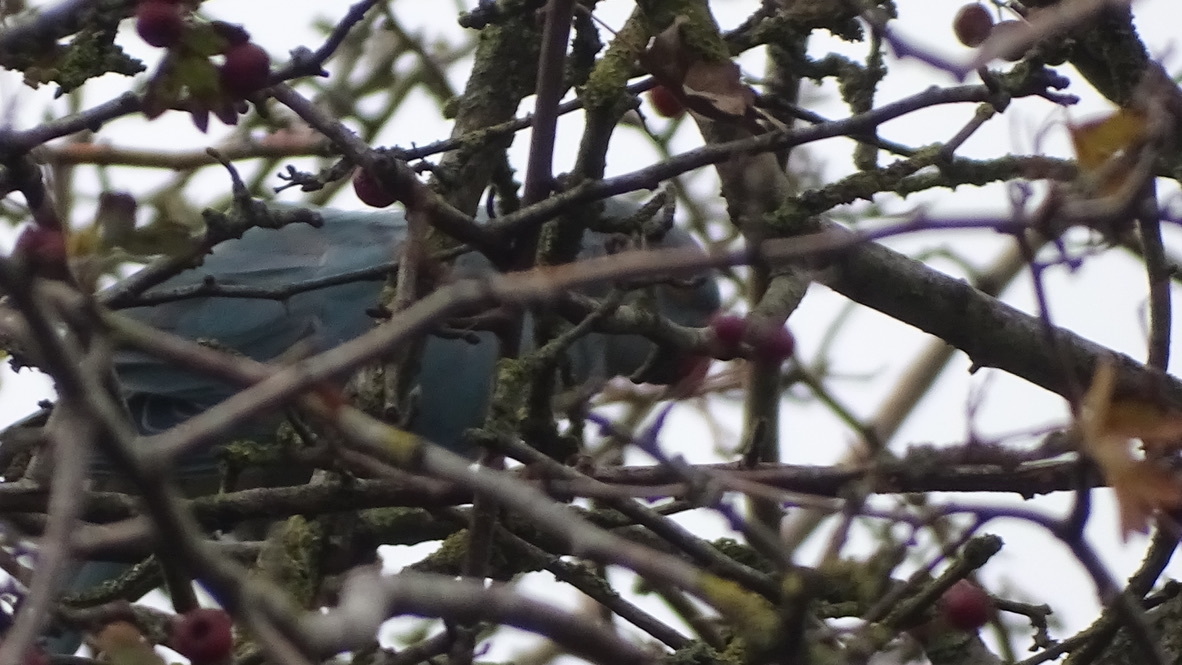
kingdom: Animalia
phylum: Chordata
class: Aves
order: Psittaciformes
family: Psittacidae
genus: Psittacula
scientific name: Psittacula krameri
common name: Rose-ringed parakeet
